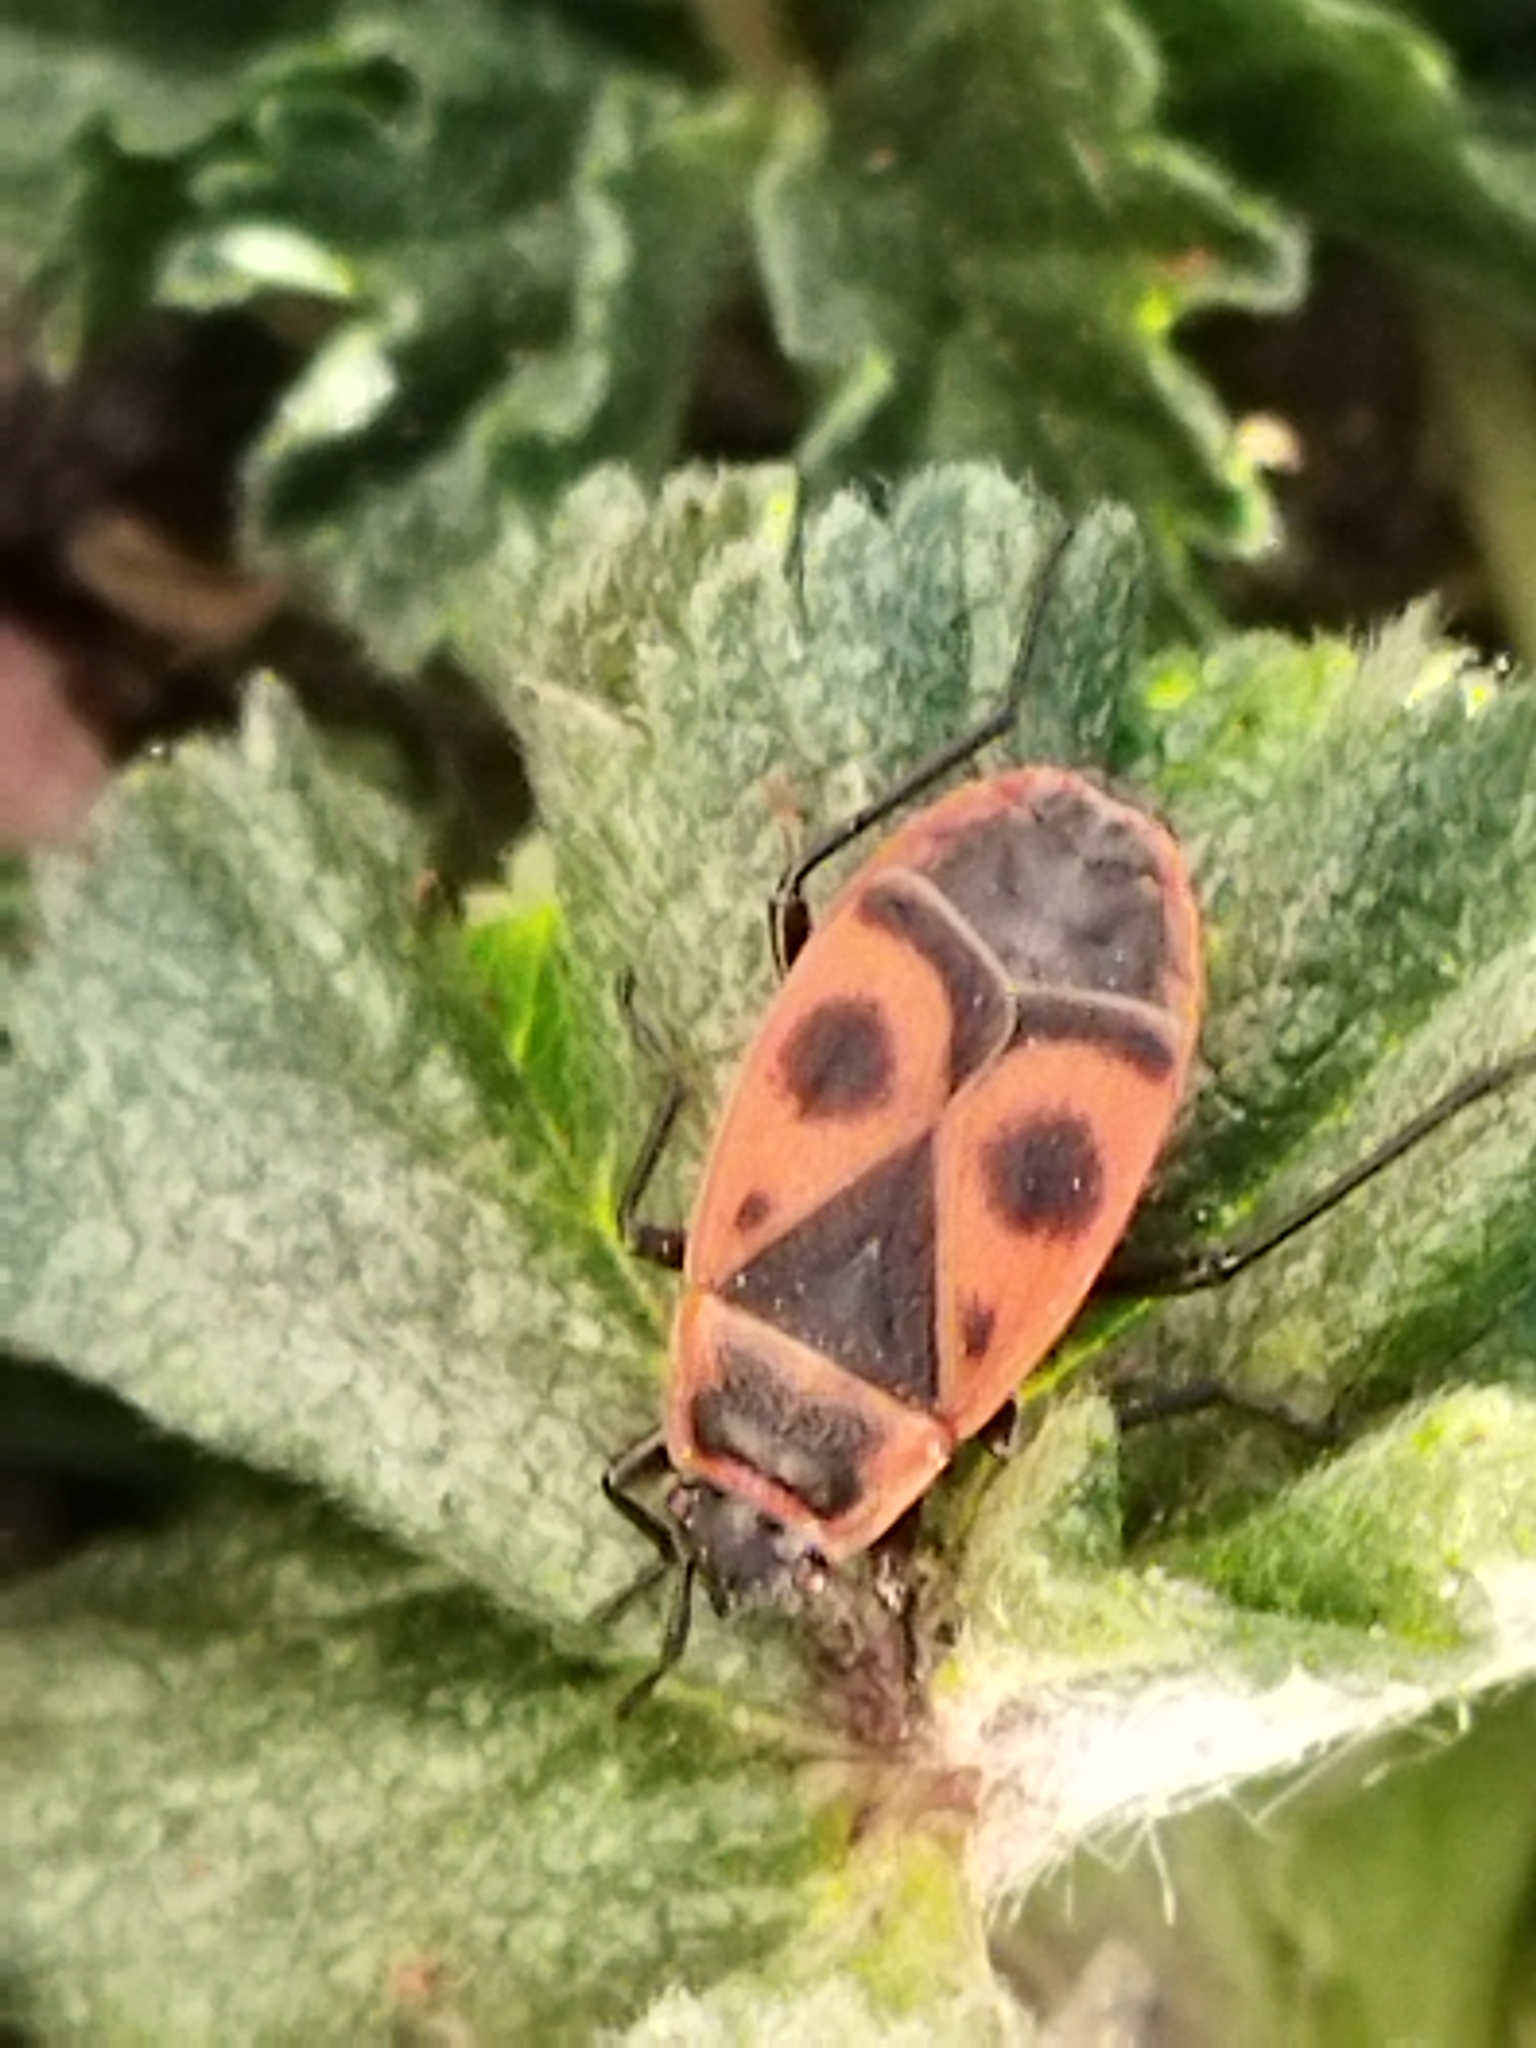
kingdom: Animalia
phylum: Arthropoda
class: Insecta
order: Hemiptera
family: Pyrrhocoridae
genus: Pyrrhocoris
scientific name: Pyrrhocoris apterus
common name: Firebug
